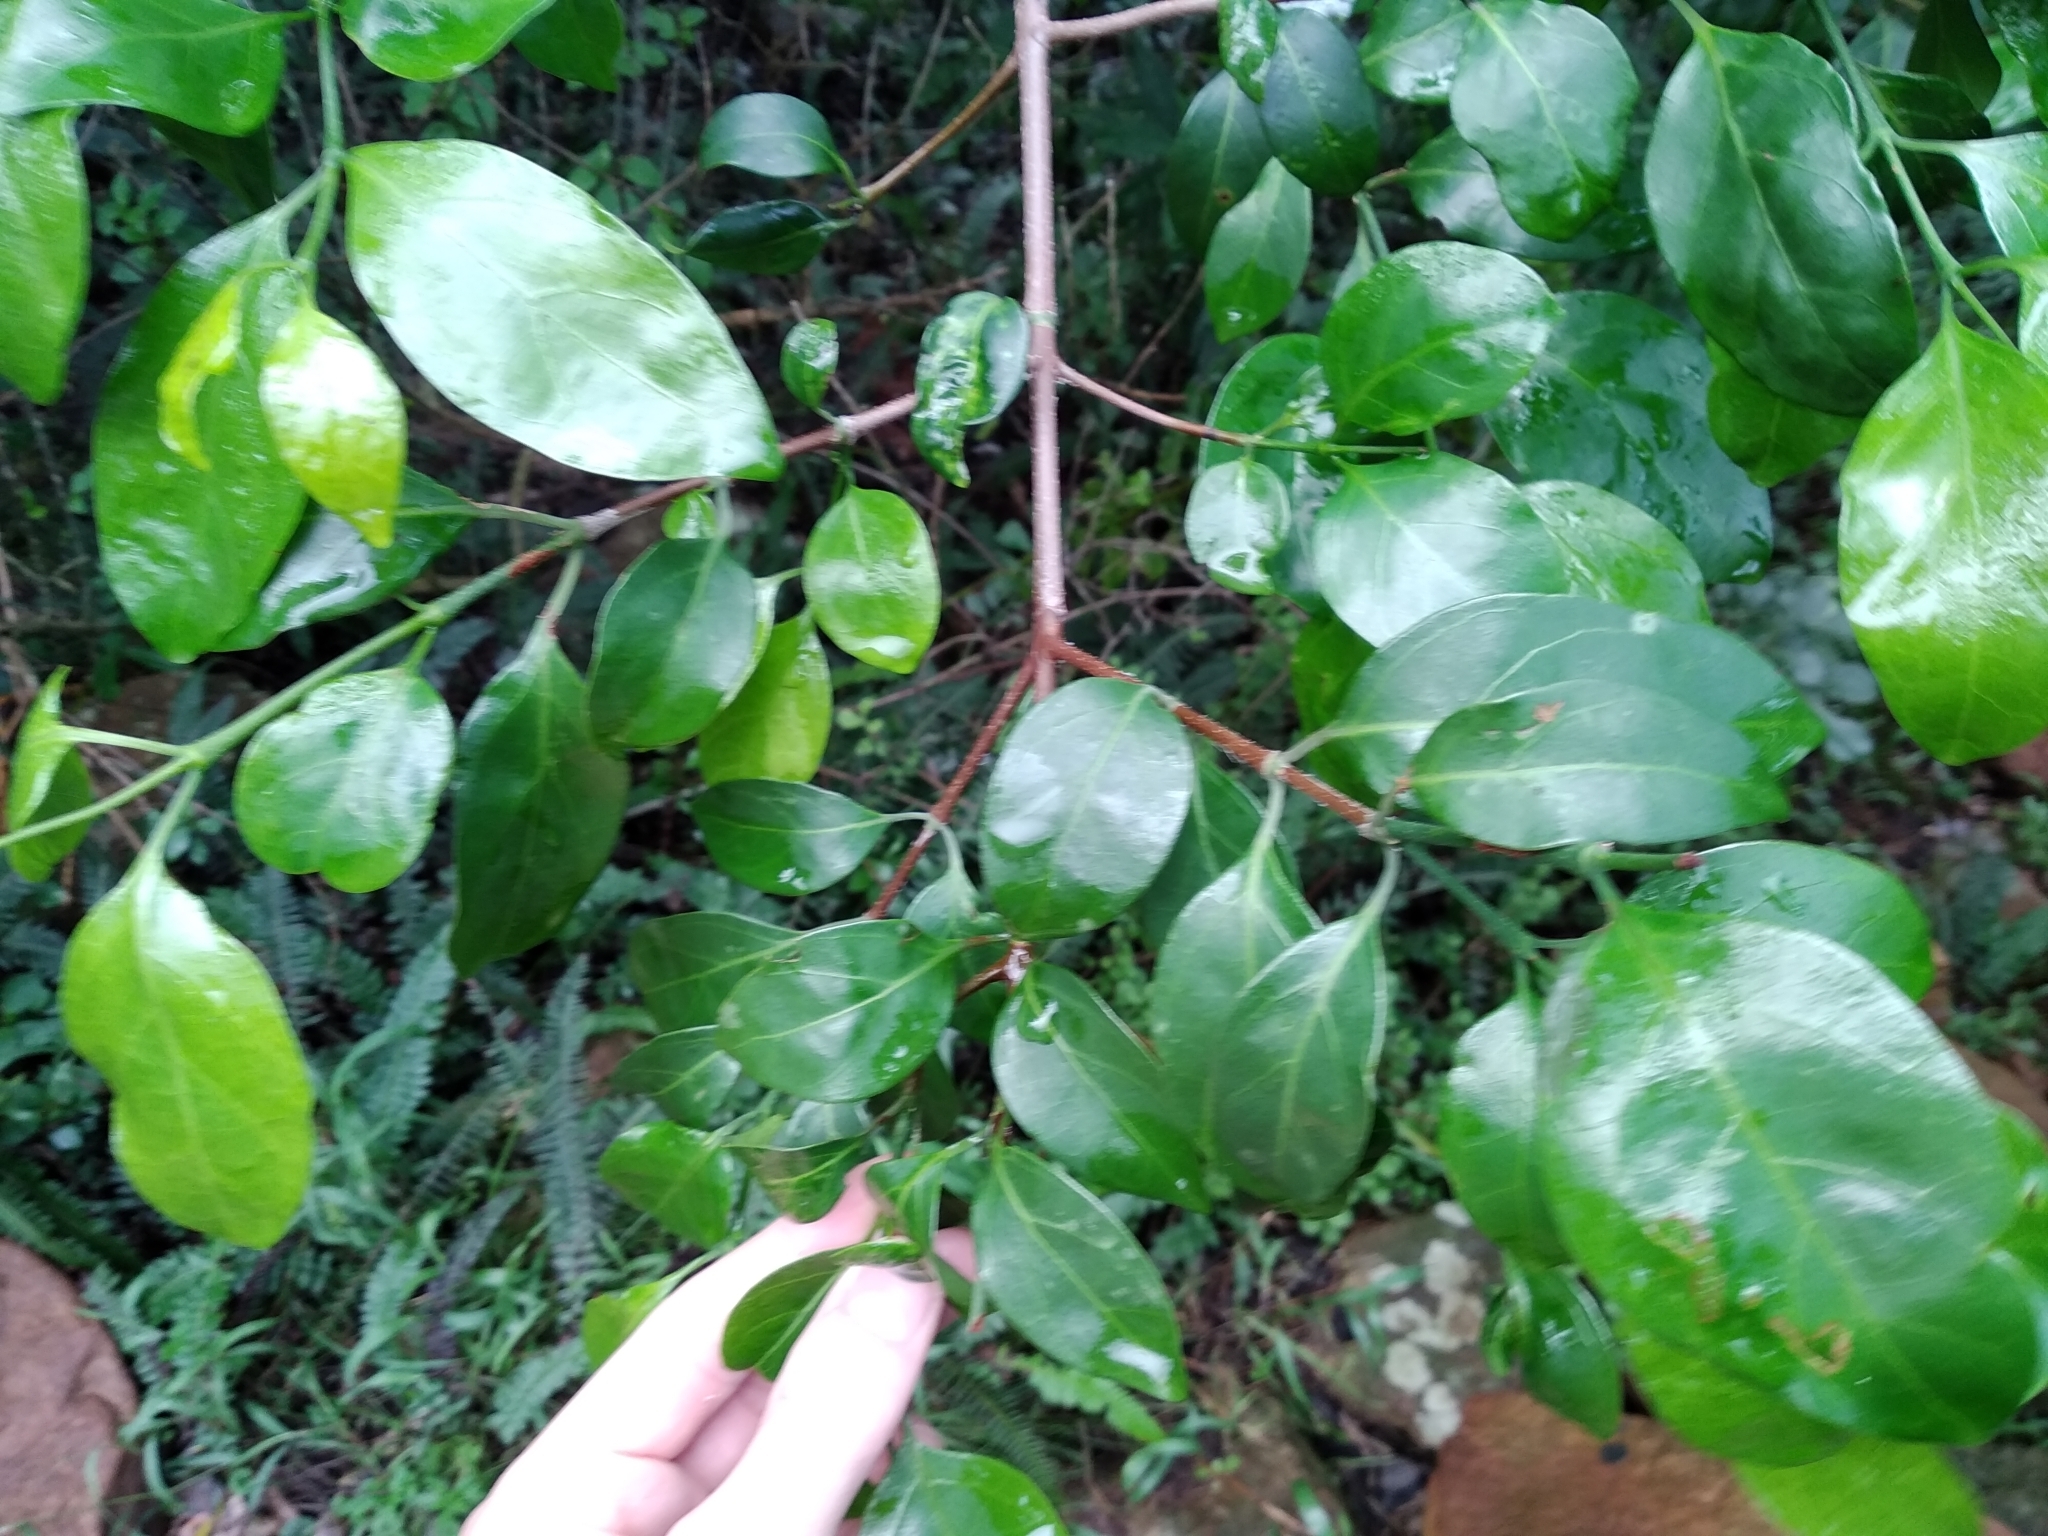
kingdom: Plantae
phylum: Tracheophyta
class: Magnoliopsida
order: Gentianales
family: Rubiaceae
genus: Canthium
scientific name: Canthium inerme
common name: Unarmed turkey-berry
